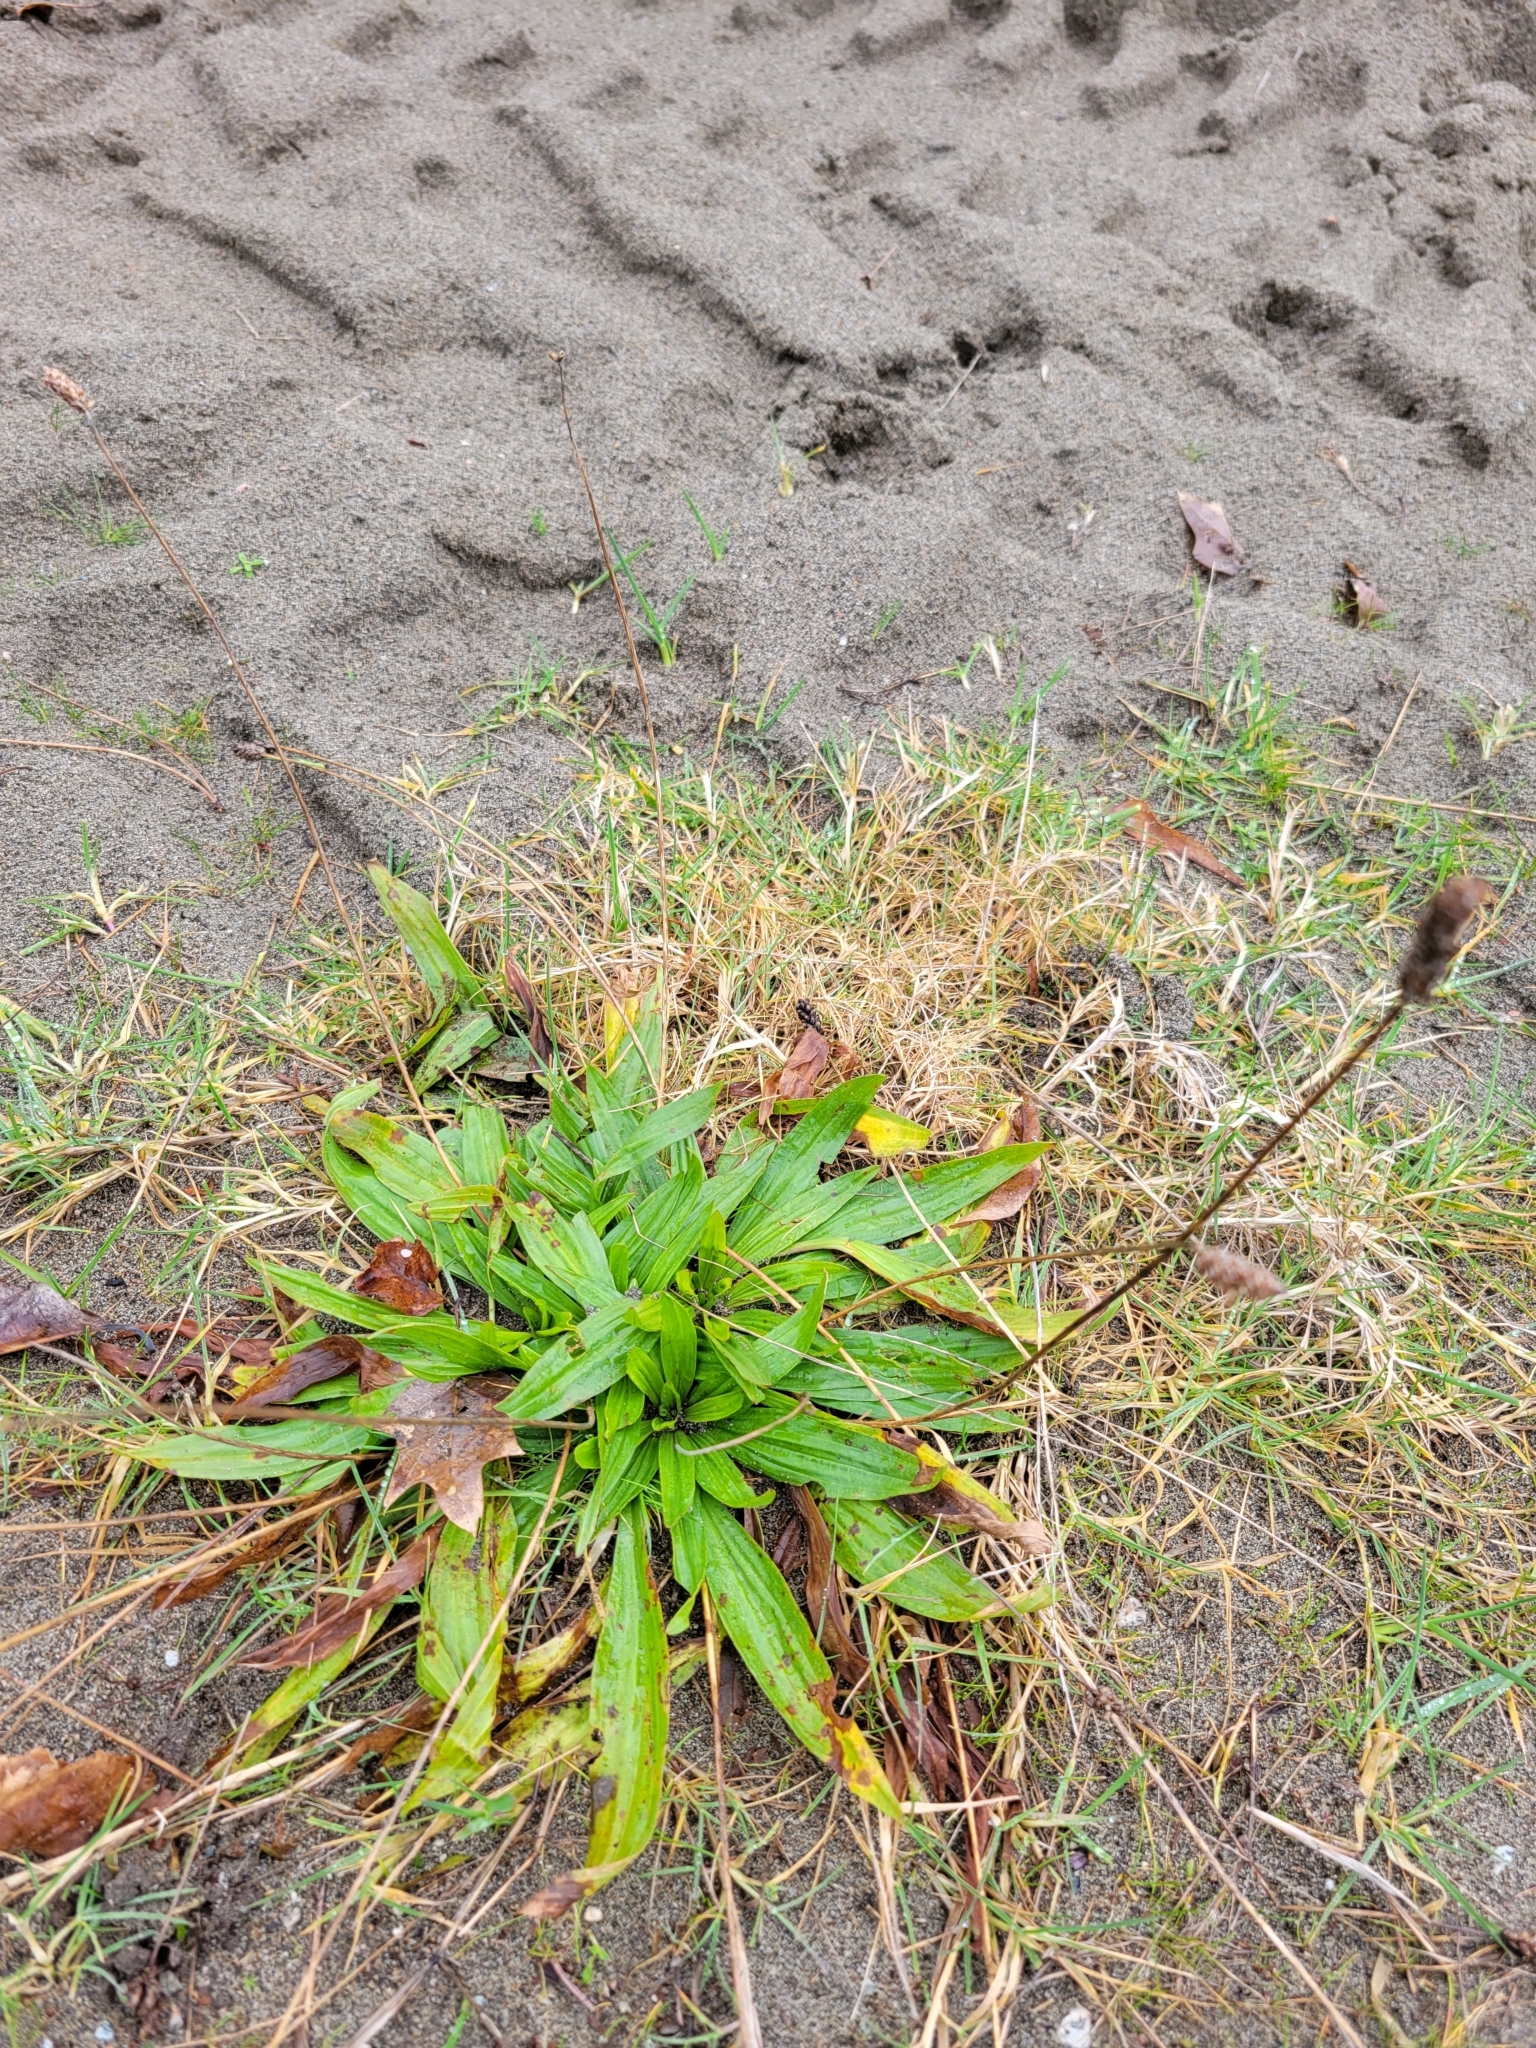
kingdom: Plantae
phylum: Tracheophyta
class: Magnoliopsida
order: Lamiales
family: Plantaginaceae
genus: Plantago
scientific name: Plantago lanceolata
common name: Ribwort plantain
